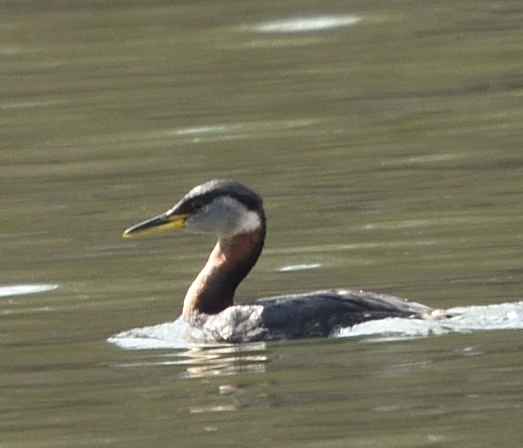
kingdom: Animalia
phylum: Chordata
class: Aves
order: Podicipediformes
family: Podicipedidae
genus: Podiceps
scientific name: Podiceps grisegena
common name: Red-necked grebe
